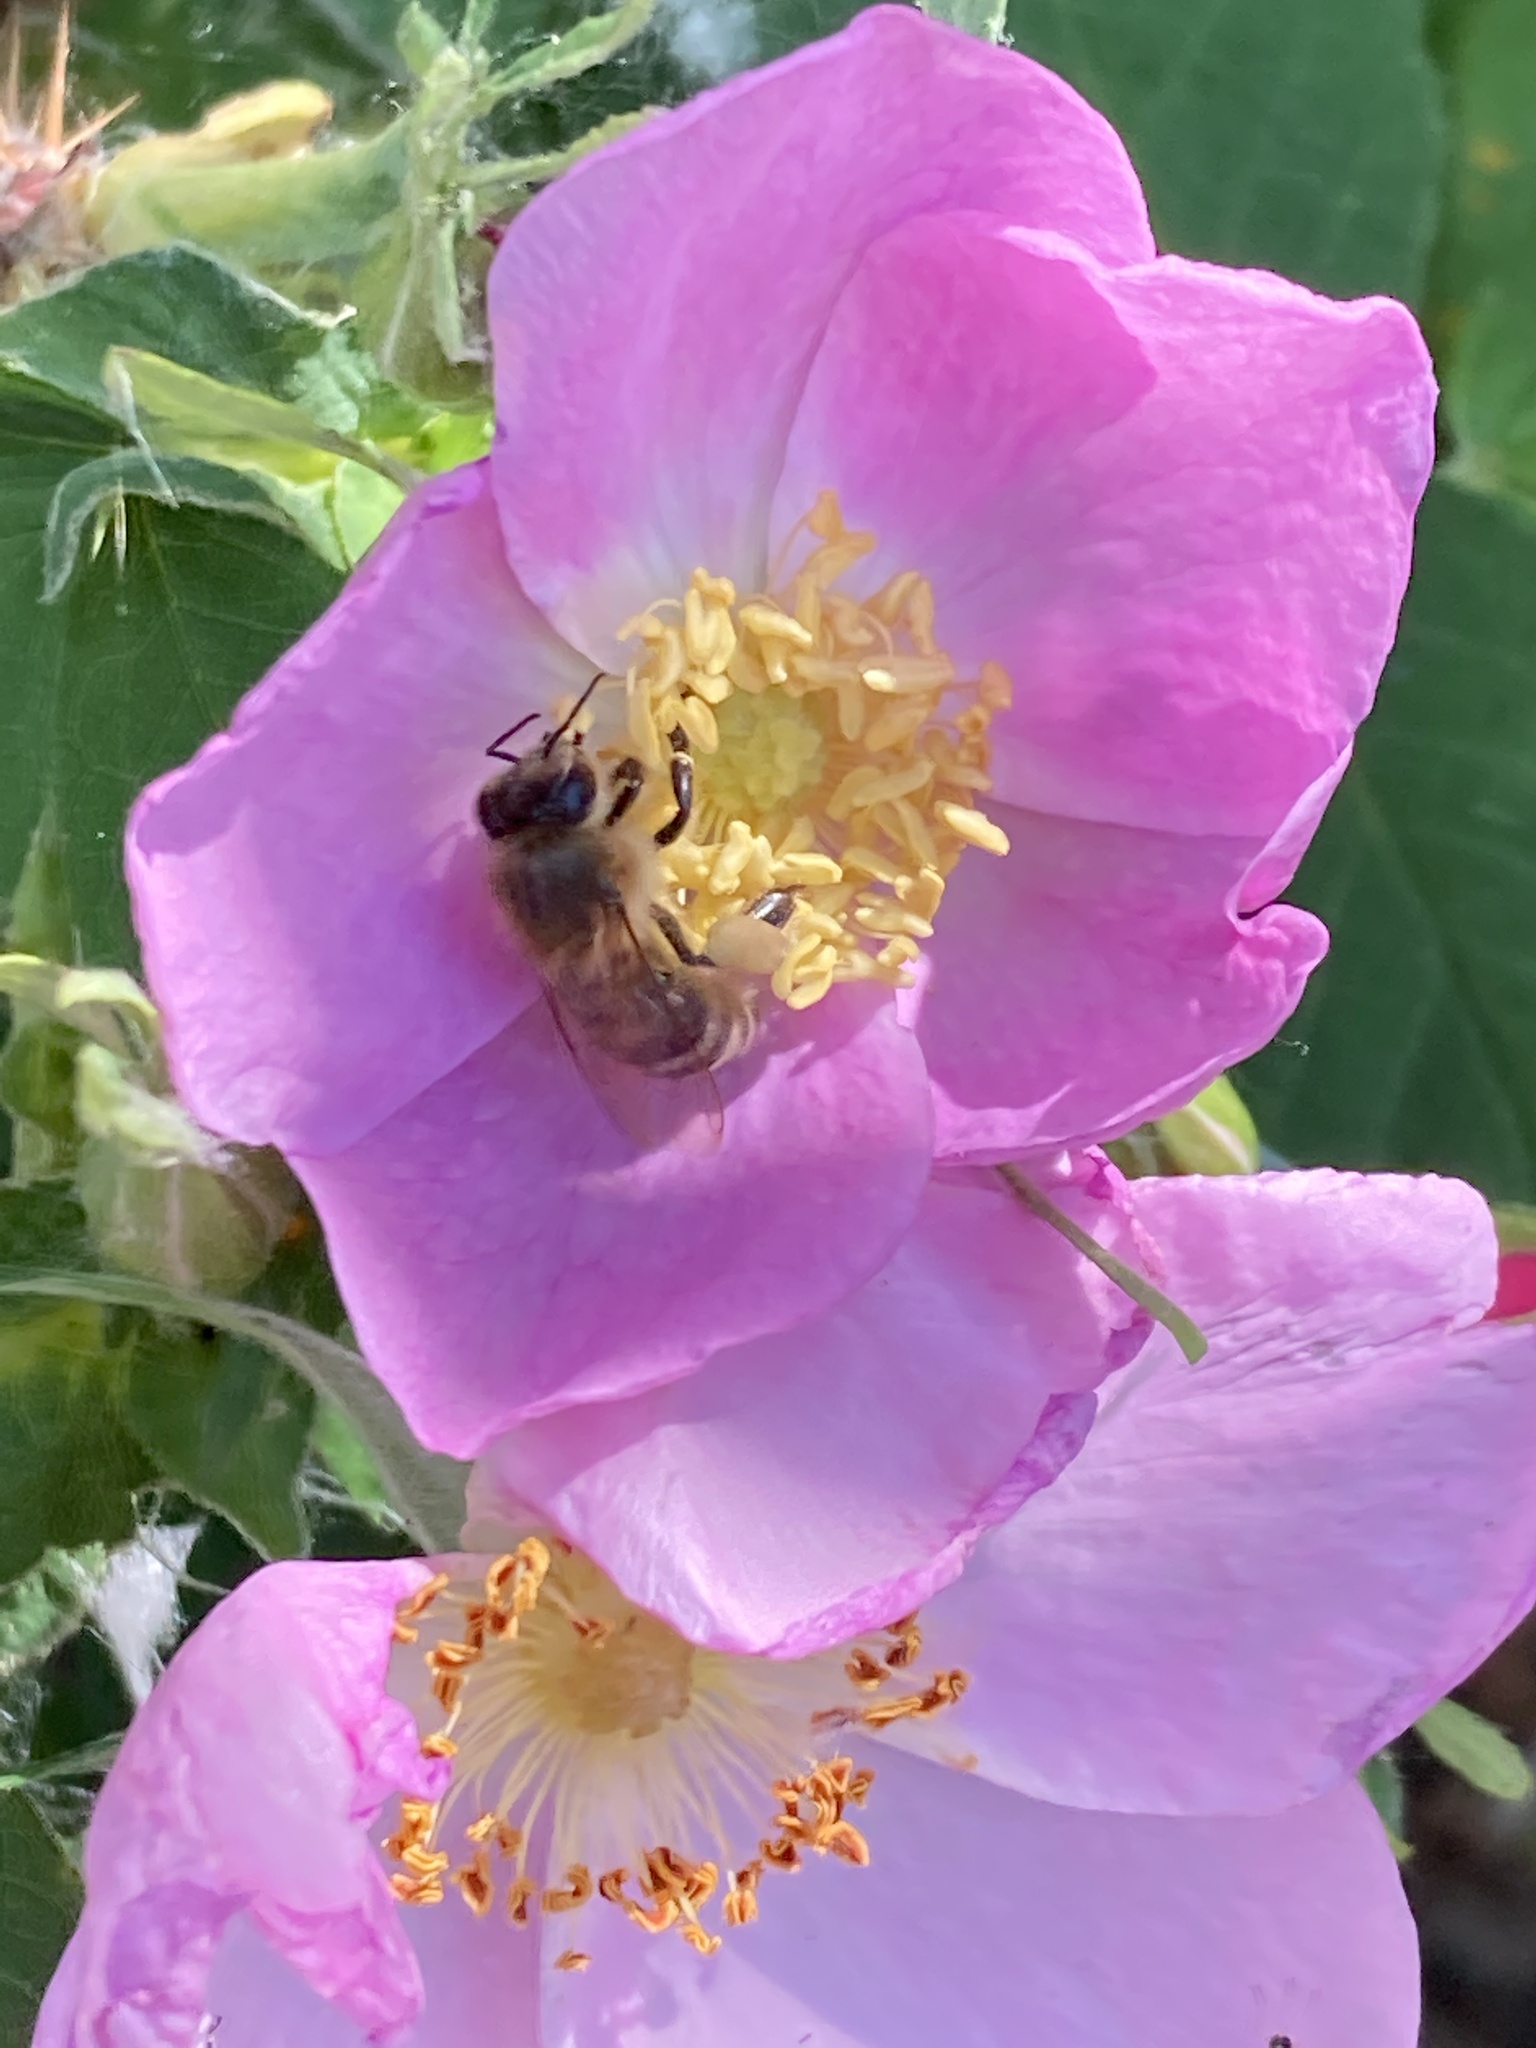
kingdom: Animalia
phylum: Arthropoda
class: Insecta
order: Hymenoptera
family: Apidae
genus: Apis
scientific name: Apis mellifera
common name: Honey bee
